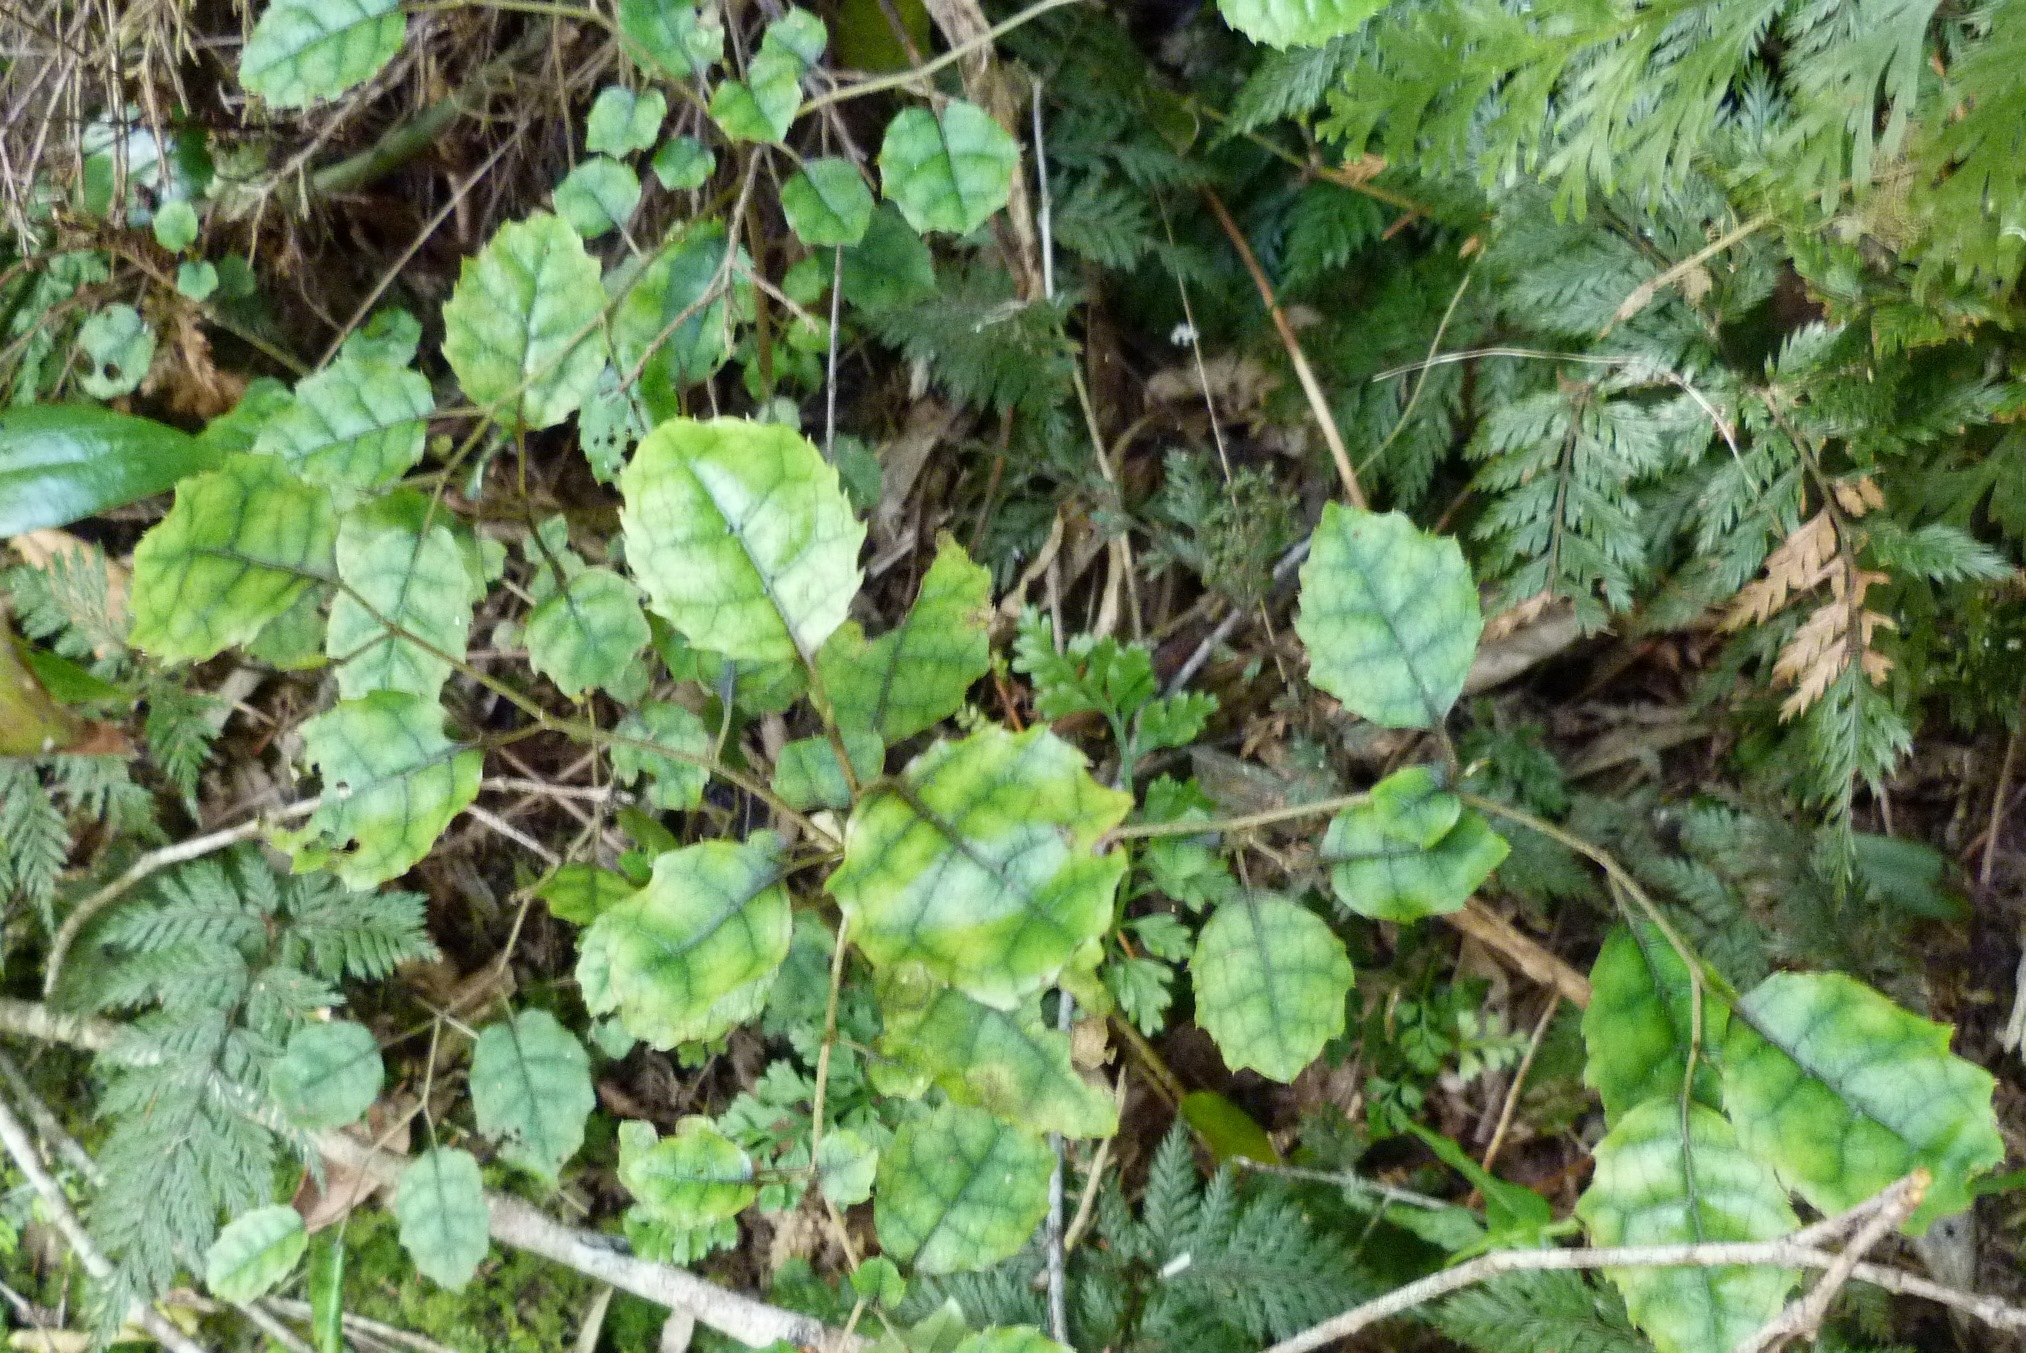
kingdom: Plantae
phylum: Tracheophyta
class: Magnoliopsida
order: Asterales
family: Rousseaceae
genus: Carpodetus
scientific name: Carpodetus serratus
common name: White mapau
